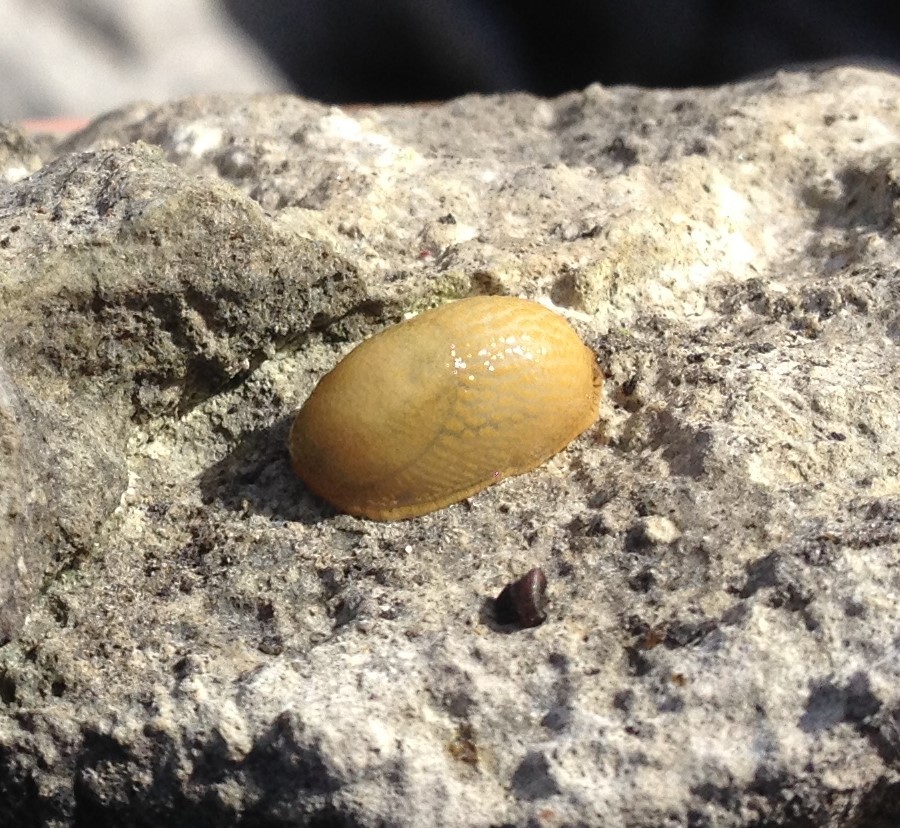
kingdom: Animalia
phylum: Mollusca
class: Gastropoda
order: Stylommatophora
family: Arionidae
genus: Arion
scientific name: Arion
